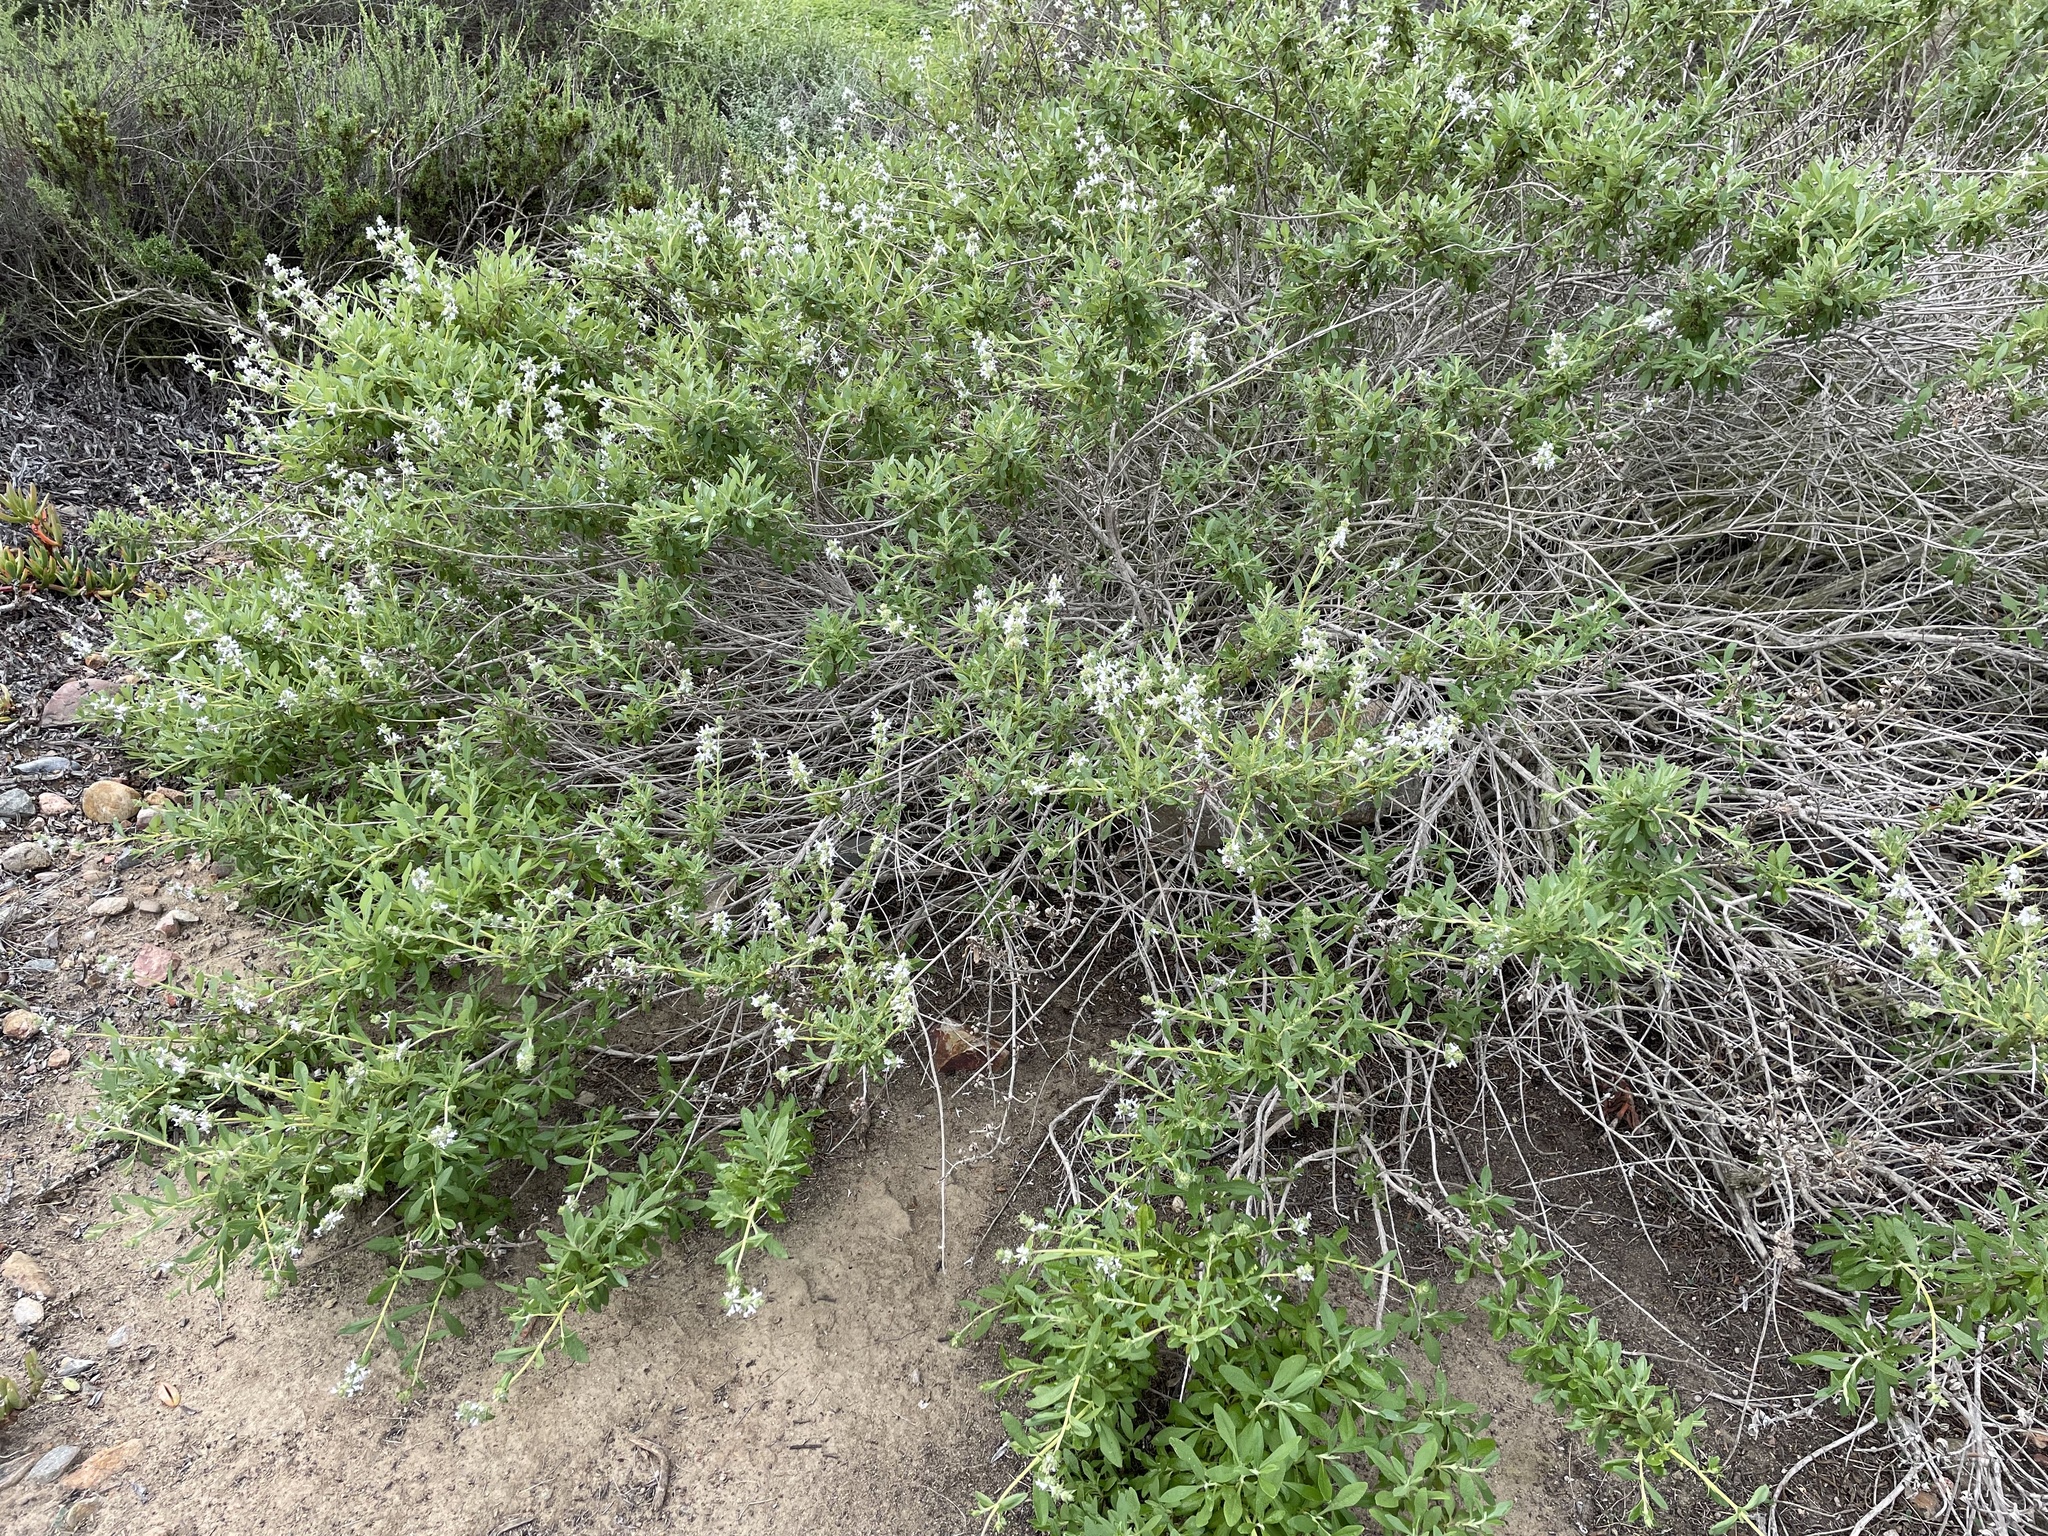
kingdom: Plantae
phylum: Tracheophyta
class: Magnoliopsida
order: Lamiales
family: Lamiaceae
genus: Salvia
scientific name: Salvia mellifera
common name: Black sage
